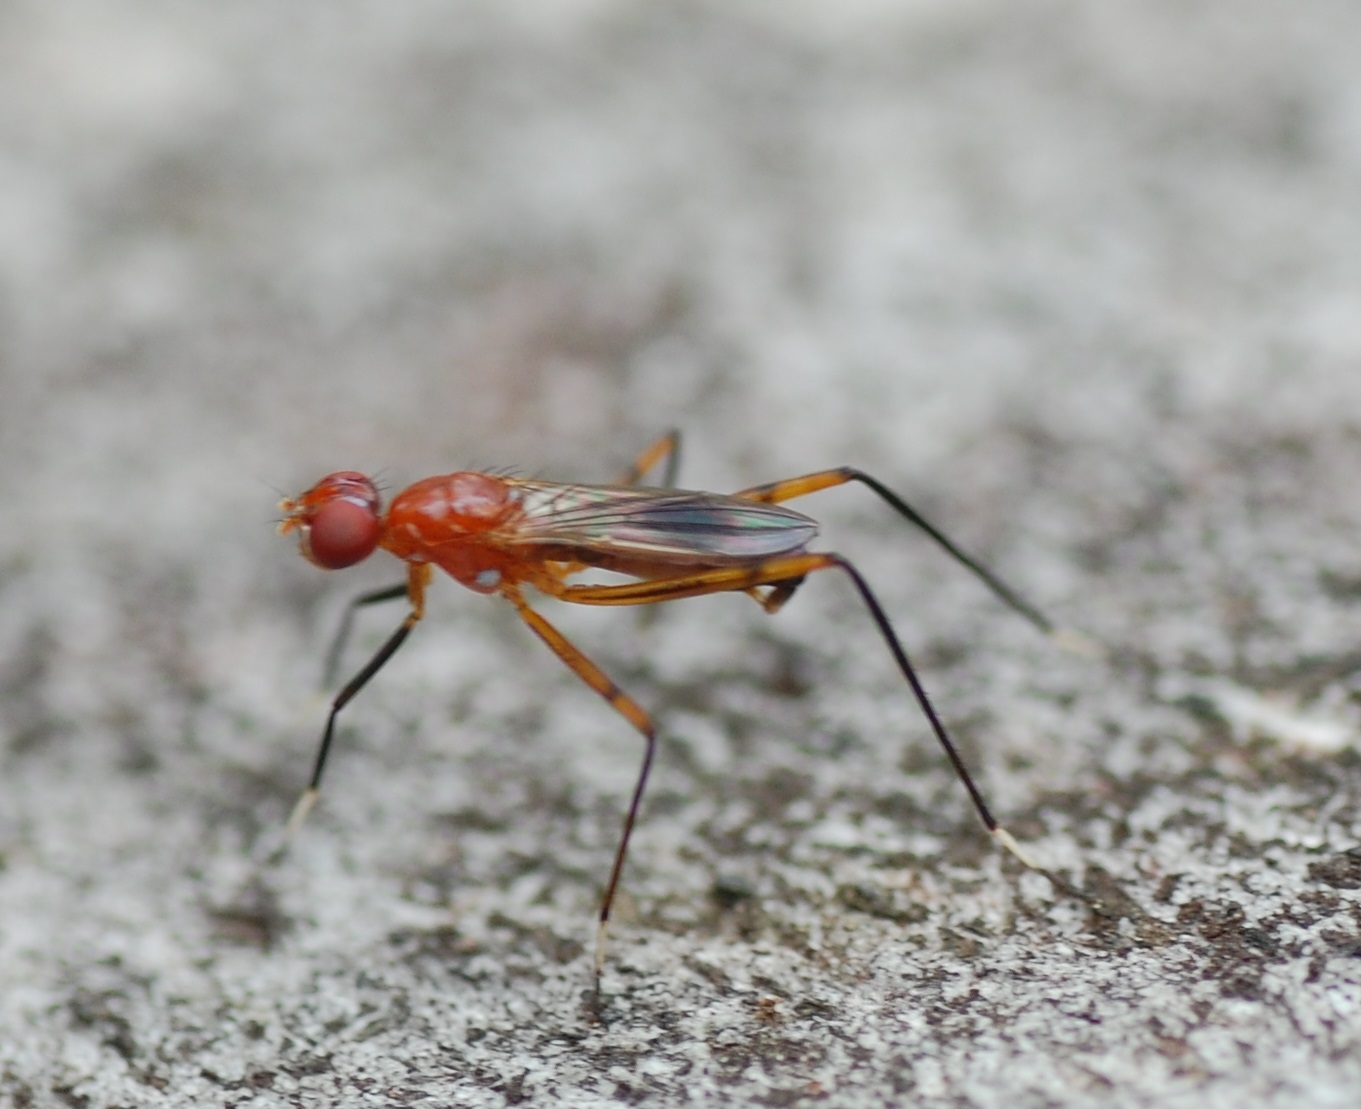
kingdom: Animalia
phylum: Arthropoda
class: Insecta
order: Diptera
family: Micropezidae
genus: Grallipeza
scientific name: Grallipeza nebulosa
